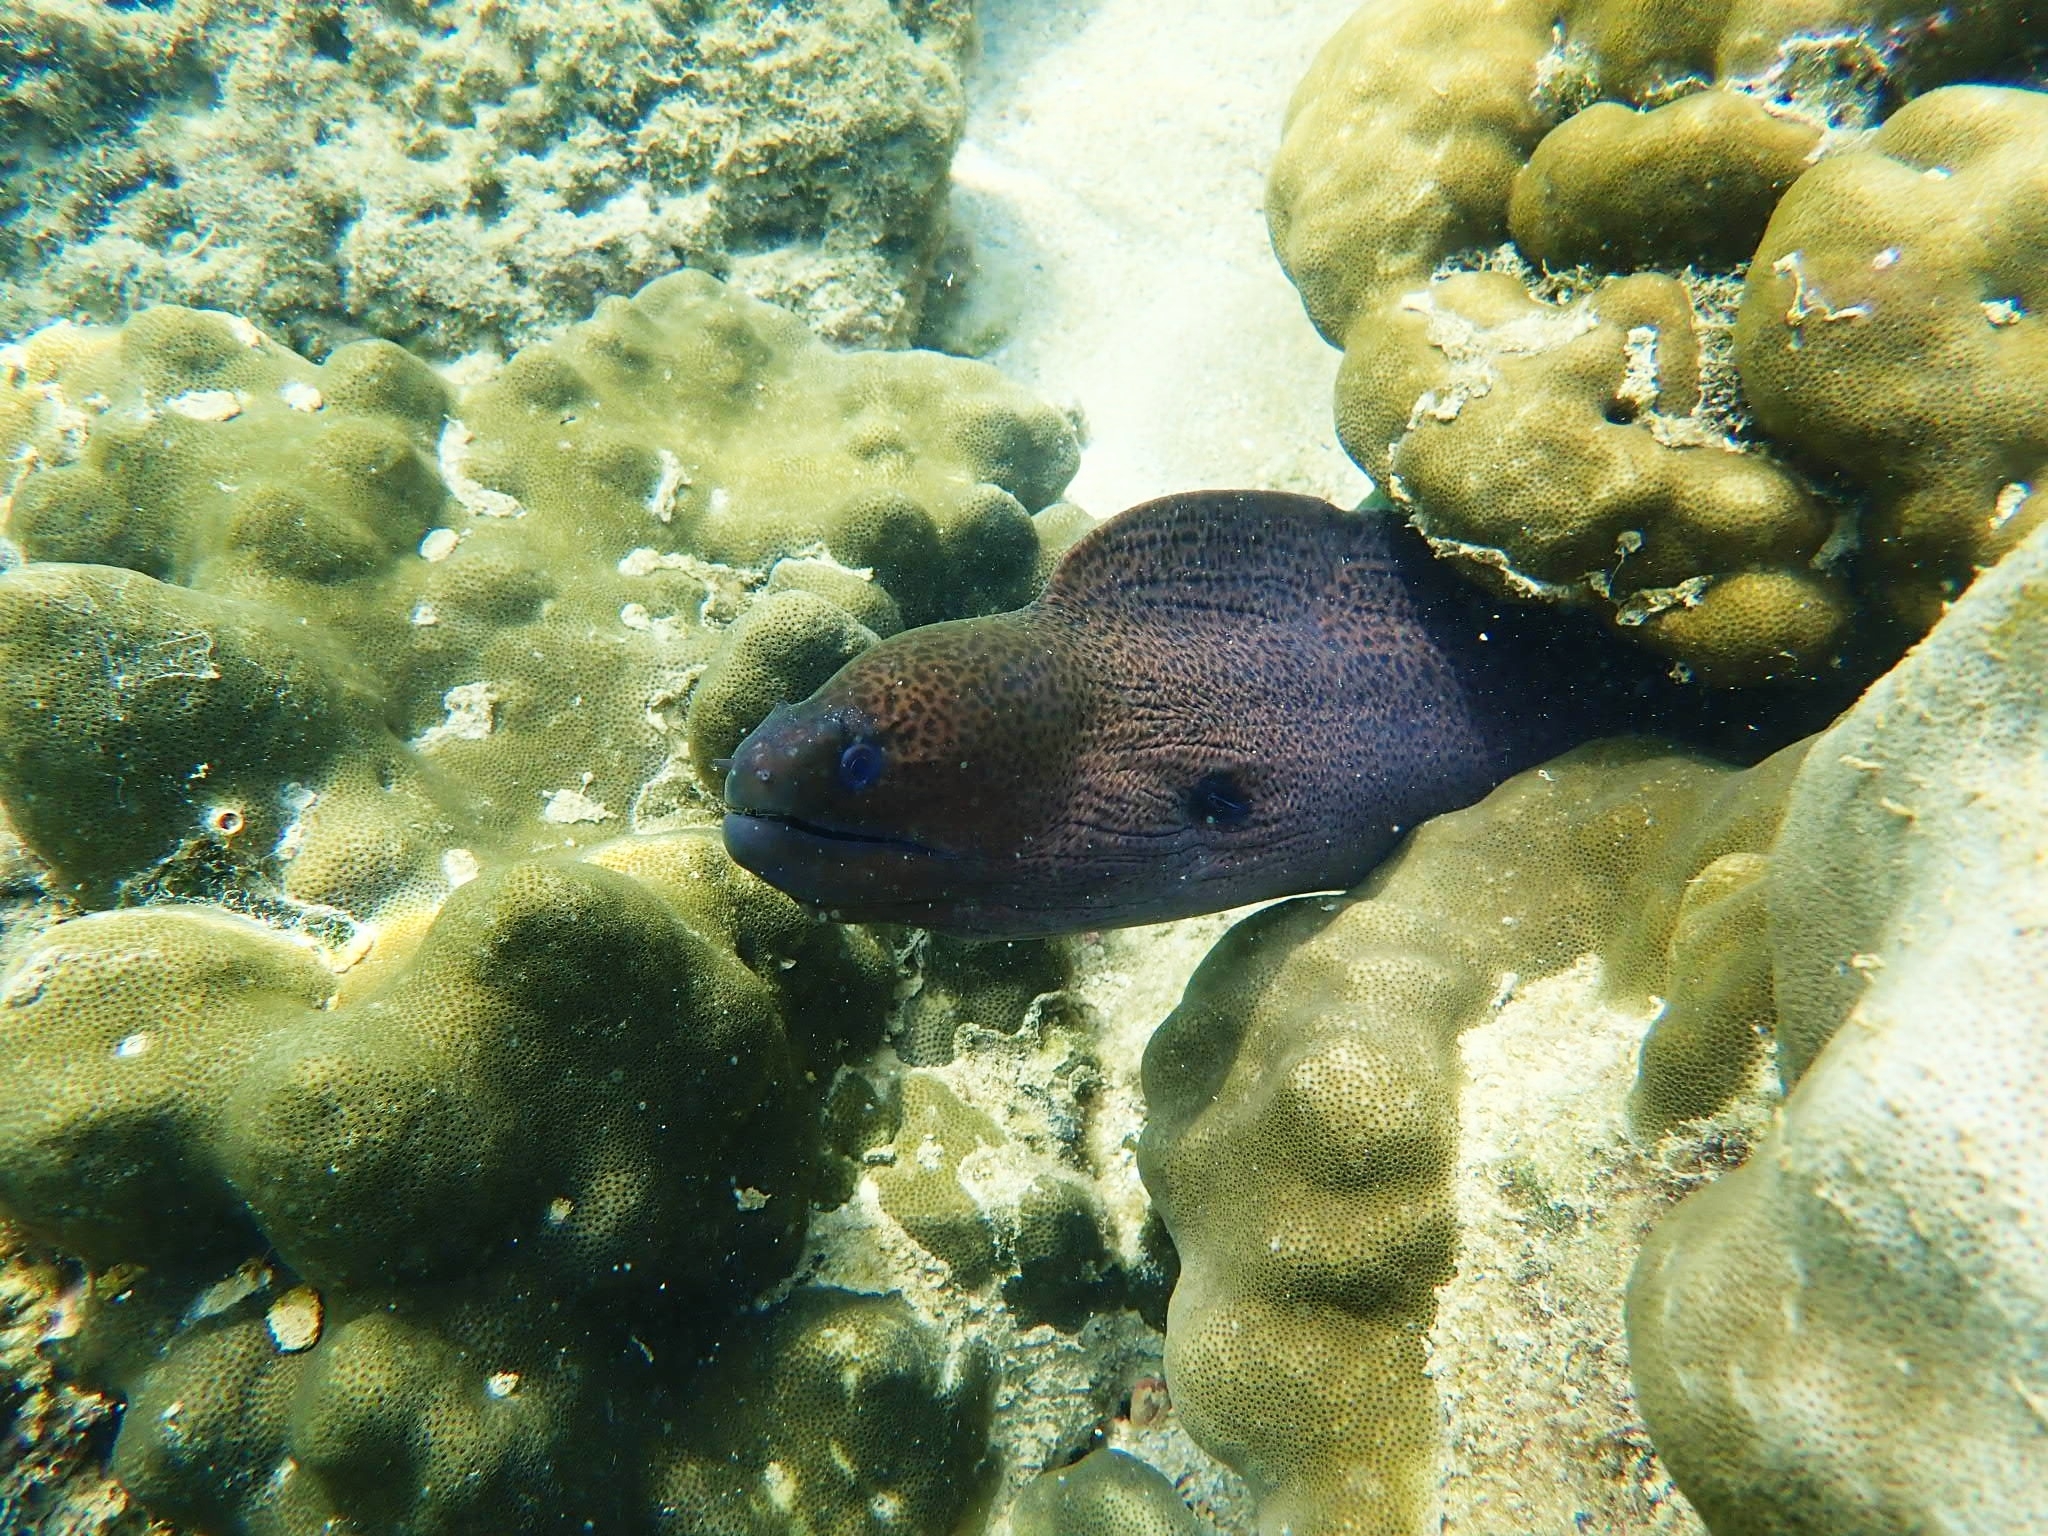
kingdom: Animalia
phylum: Chordata
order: Anguilliformes
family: Muraenidae
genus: Gymnothorax
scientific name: Gymnothorax javanicus
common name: Giant moray
